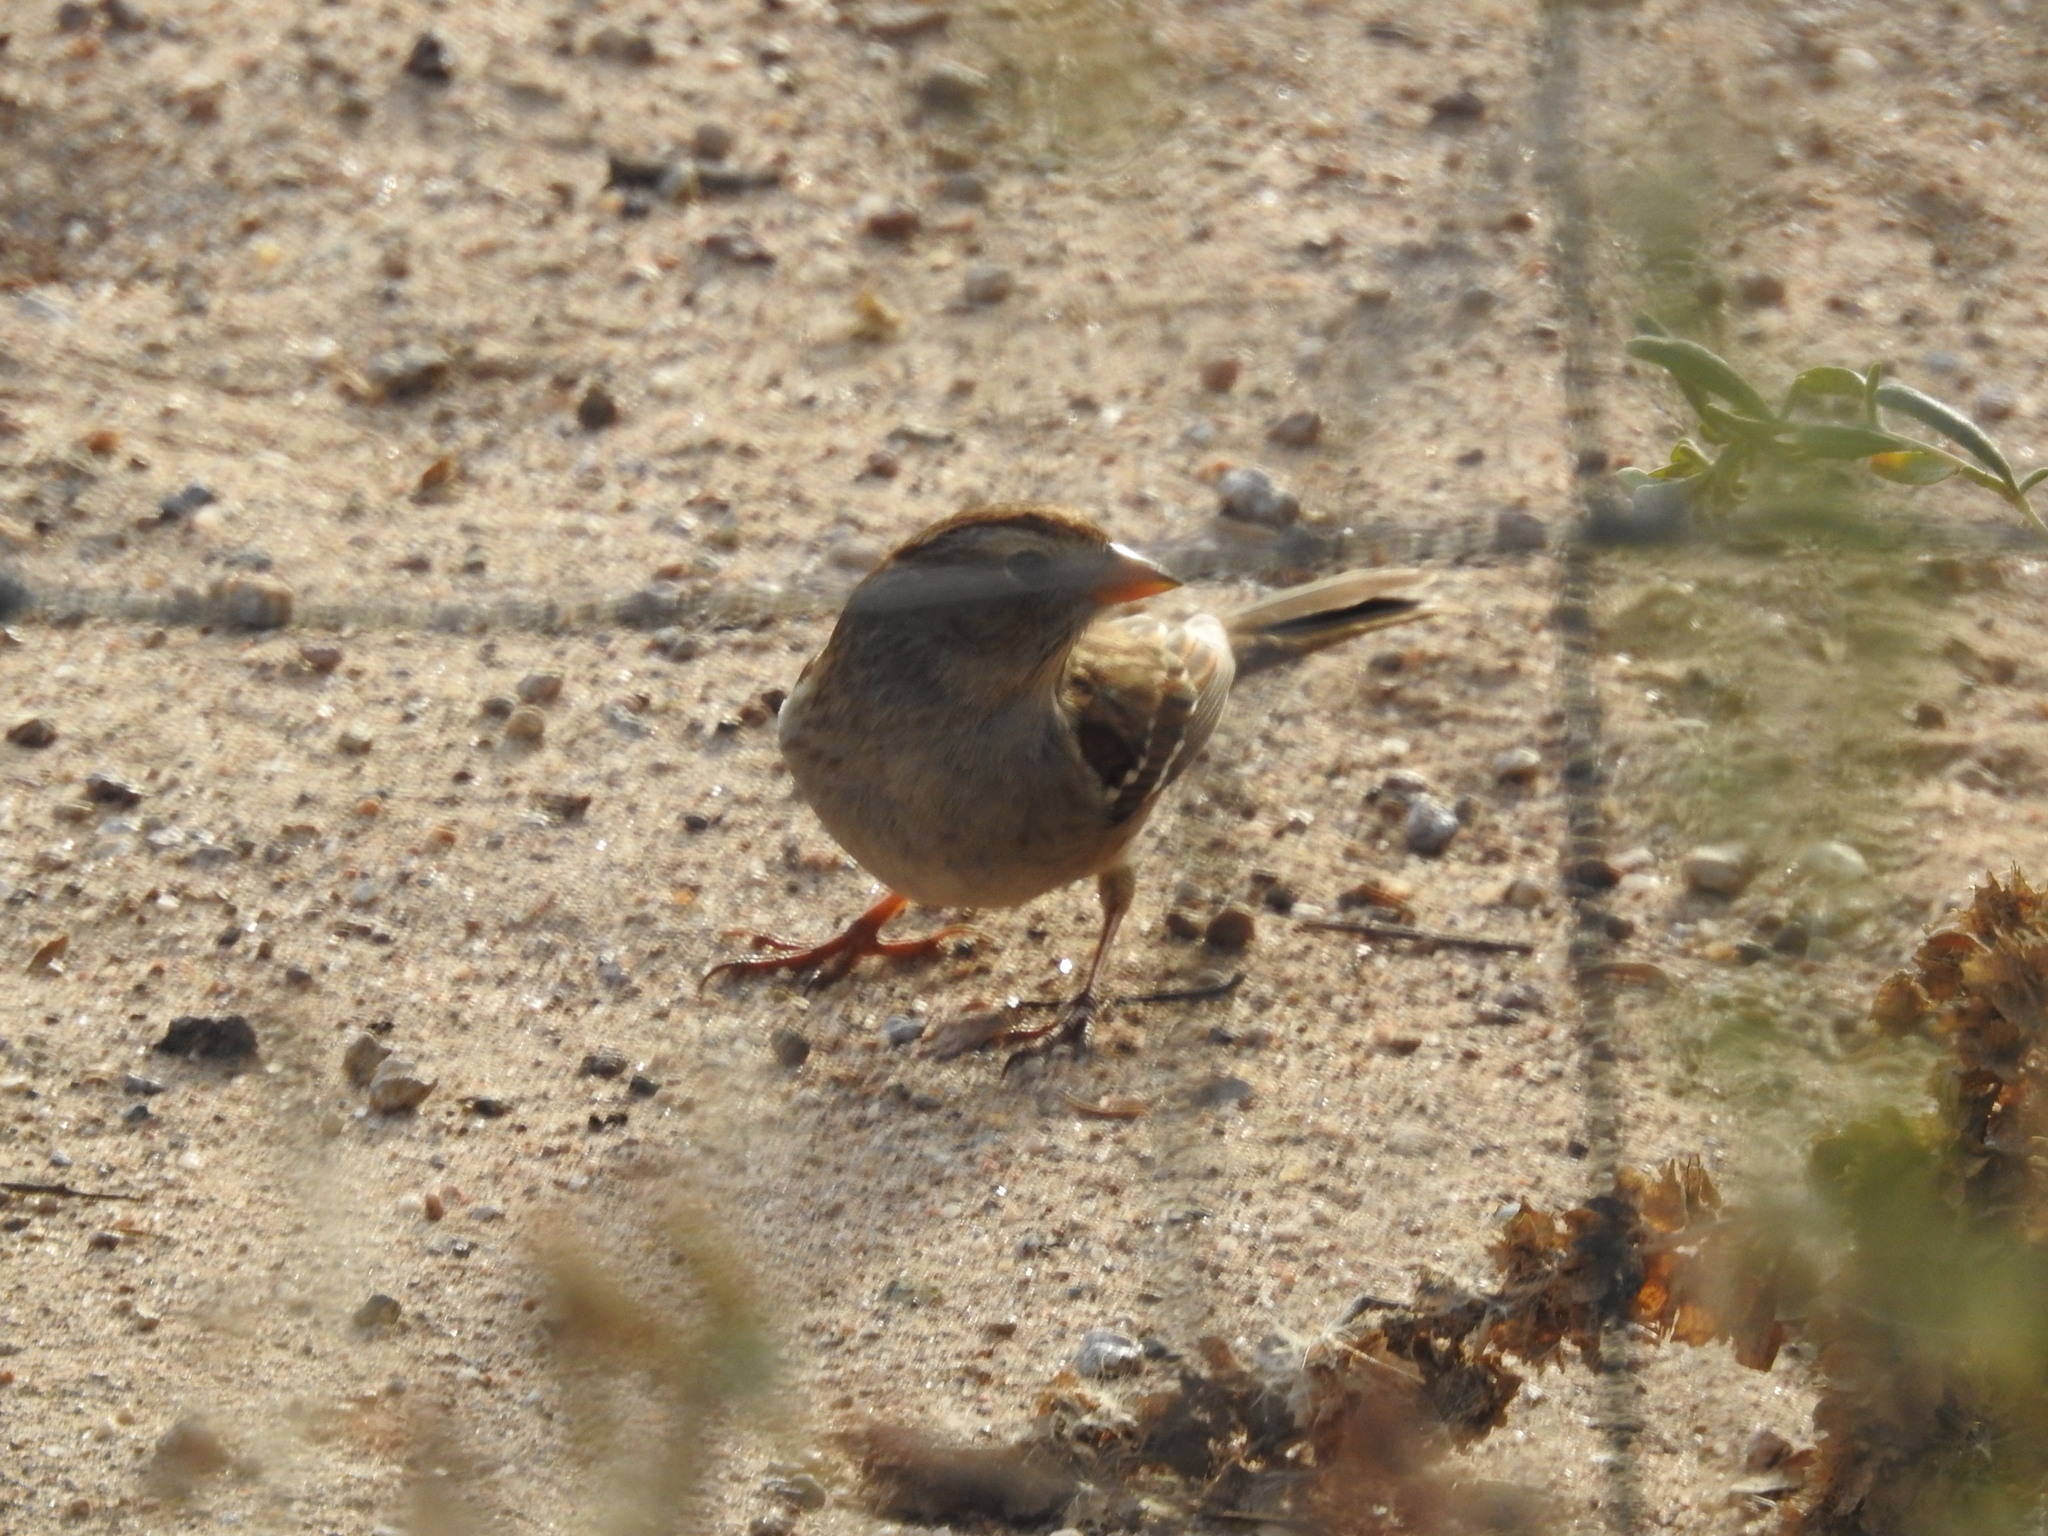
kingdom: Animalia
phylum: Chordata
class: Aves
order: Passeriformes
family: Passerellidae
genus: Zonotrichia
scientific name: Zonotrichia leucophrys
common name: White-crowned sparrow
